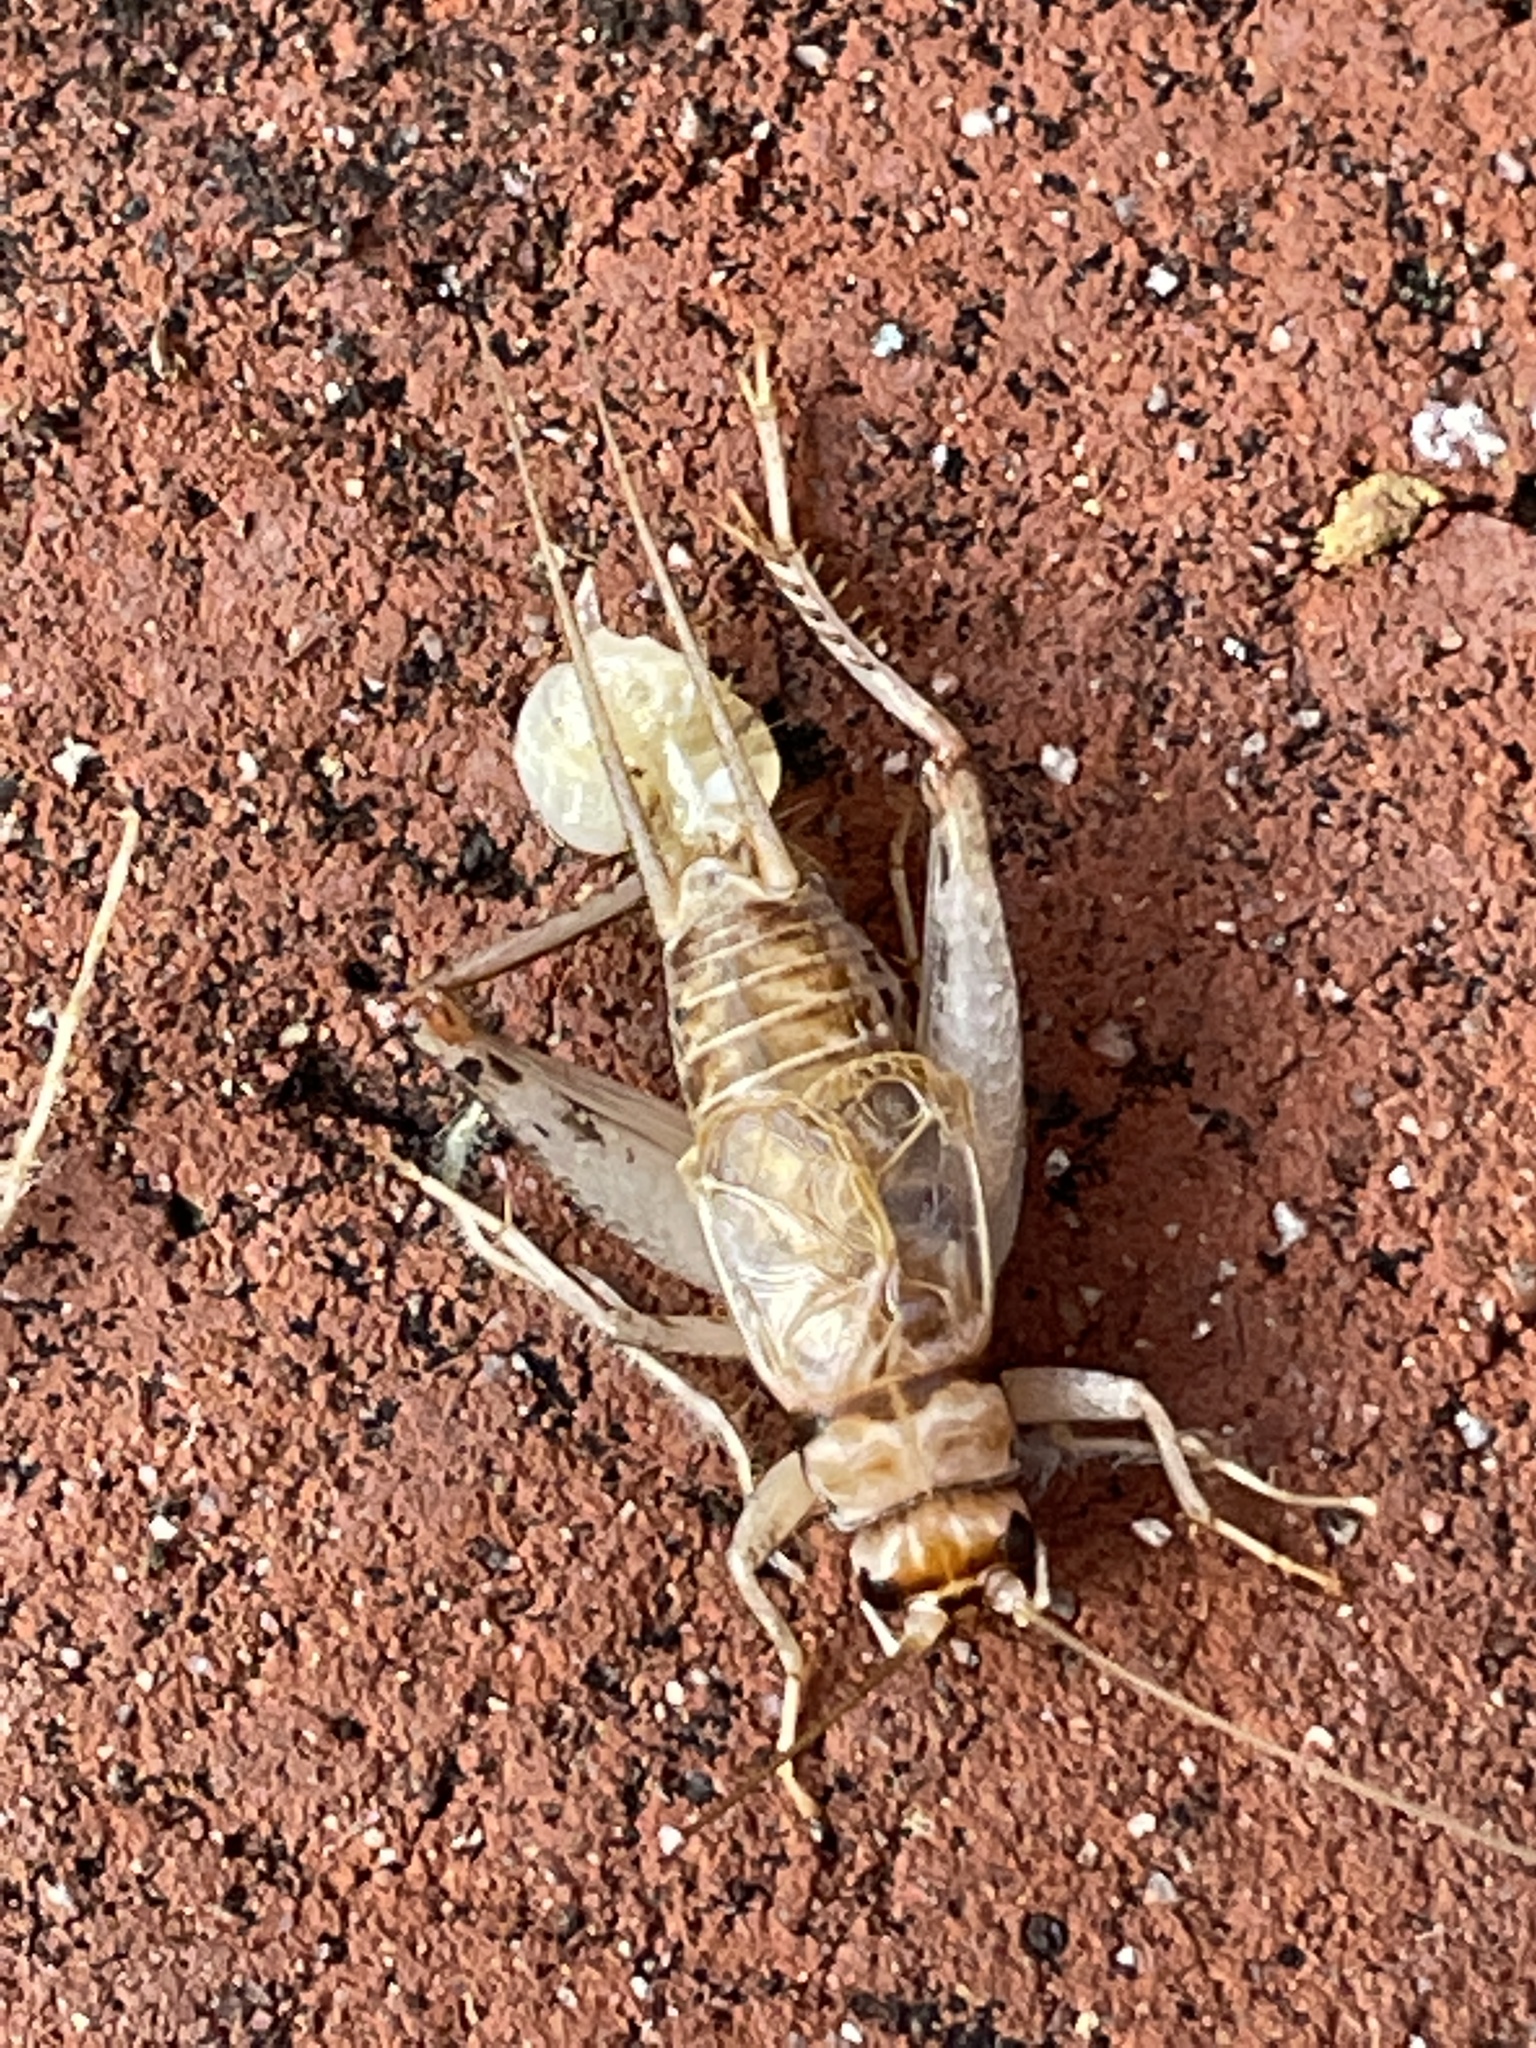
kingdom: Animalia
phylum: Arthropoda
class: Insecta
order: Orthoptera
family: Gryllidae
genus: Gryllodes
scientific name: Gryllodes sigillatus
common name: Tropical house cricket
